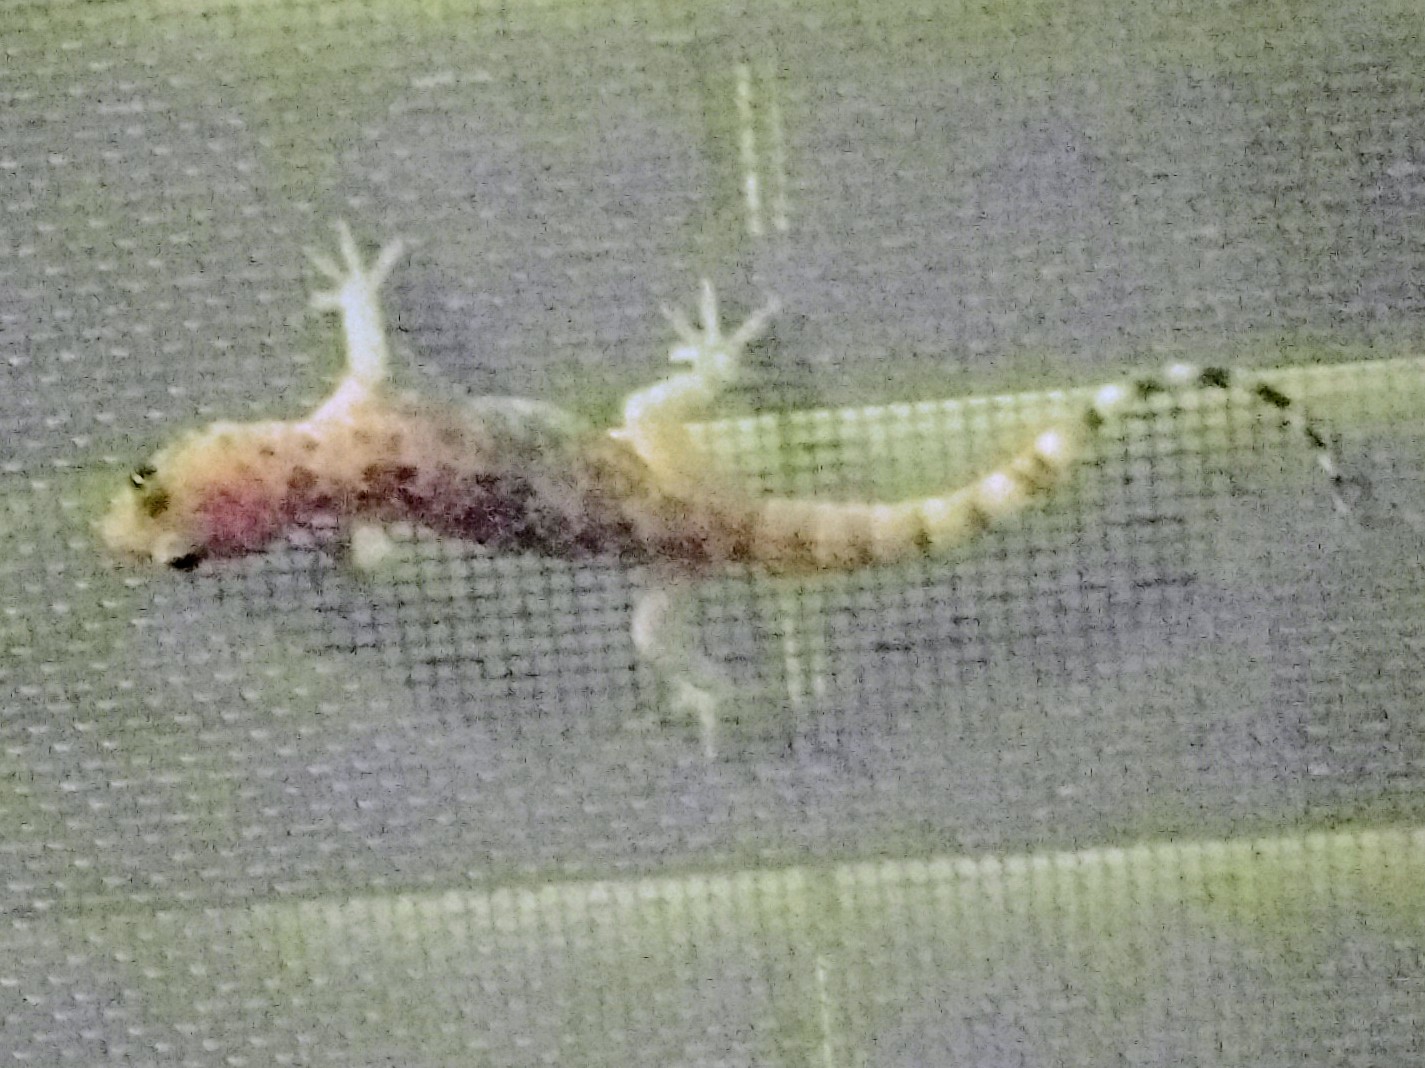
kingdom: Animalia
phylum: Chordata
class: Squamata
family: Gekkonidae
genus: Hemidactylus
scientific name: Hemidactylus turcicus
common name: Turkish gecko
